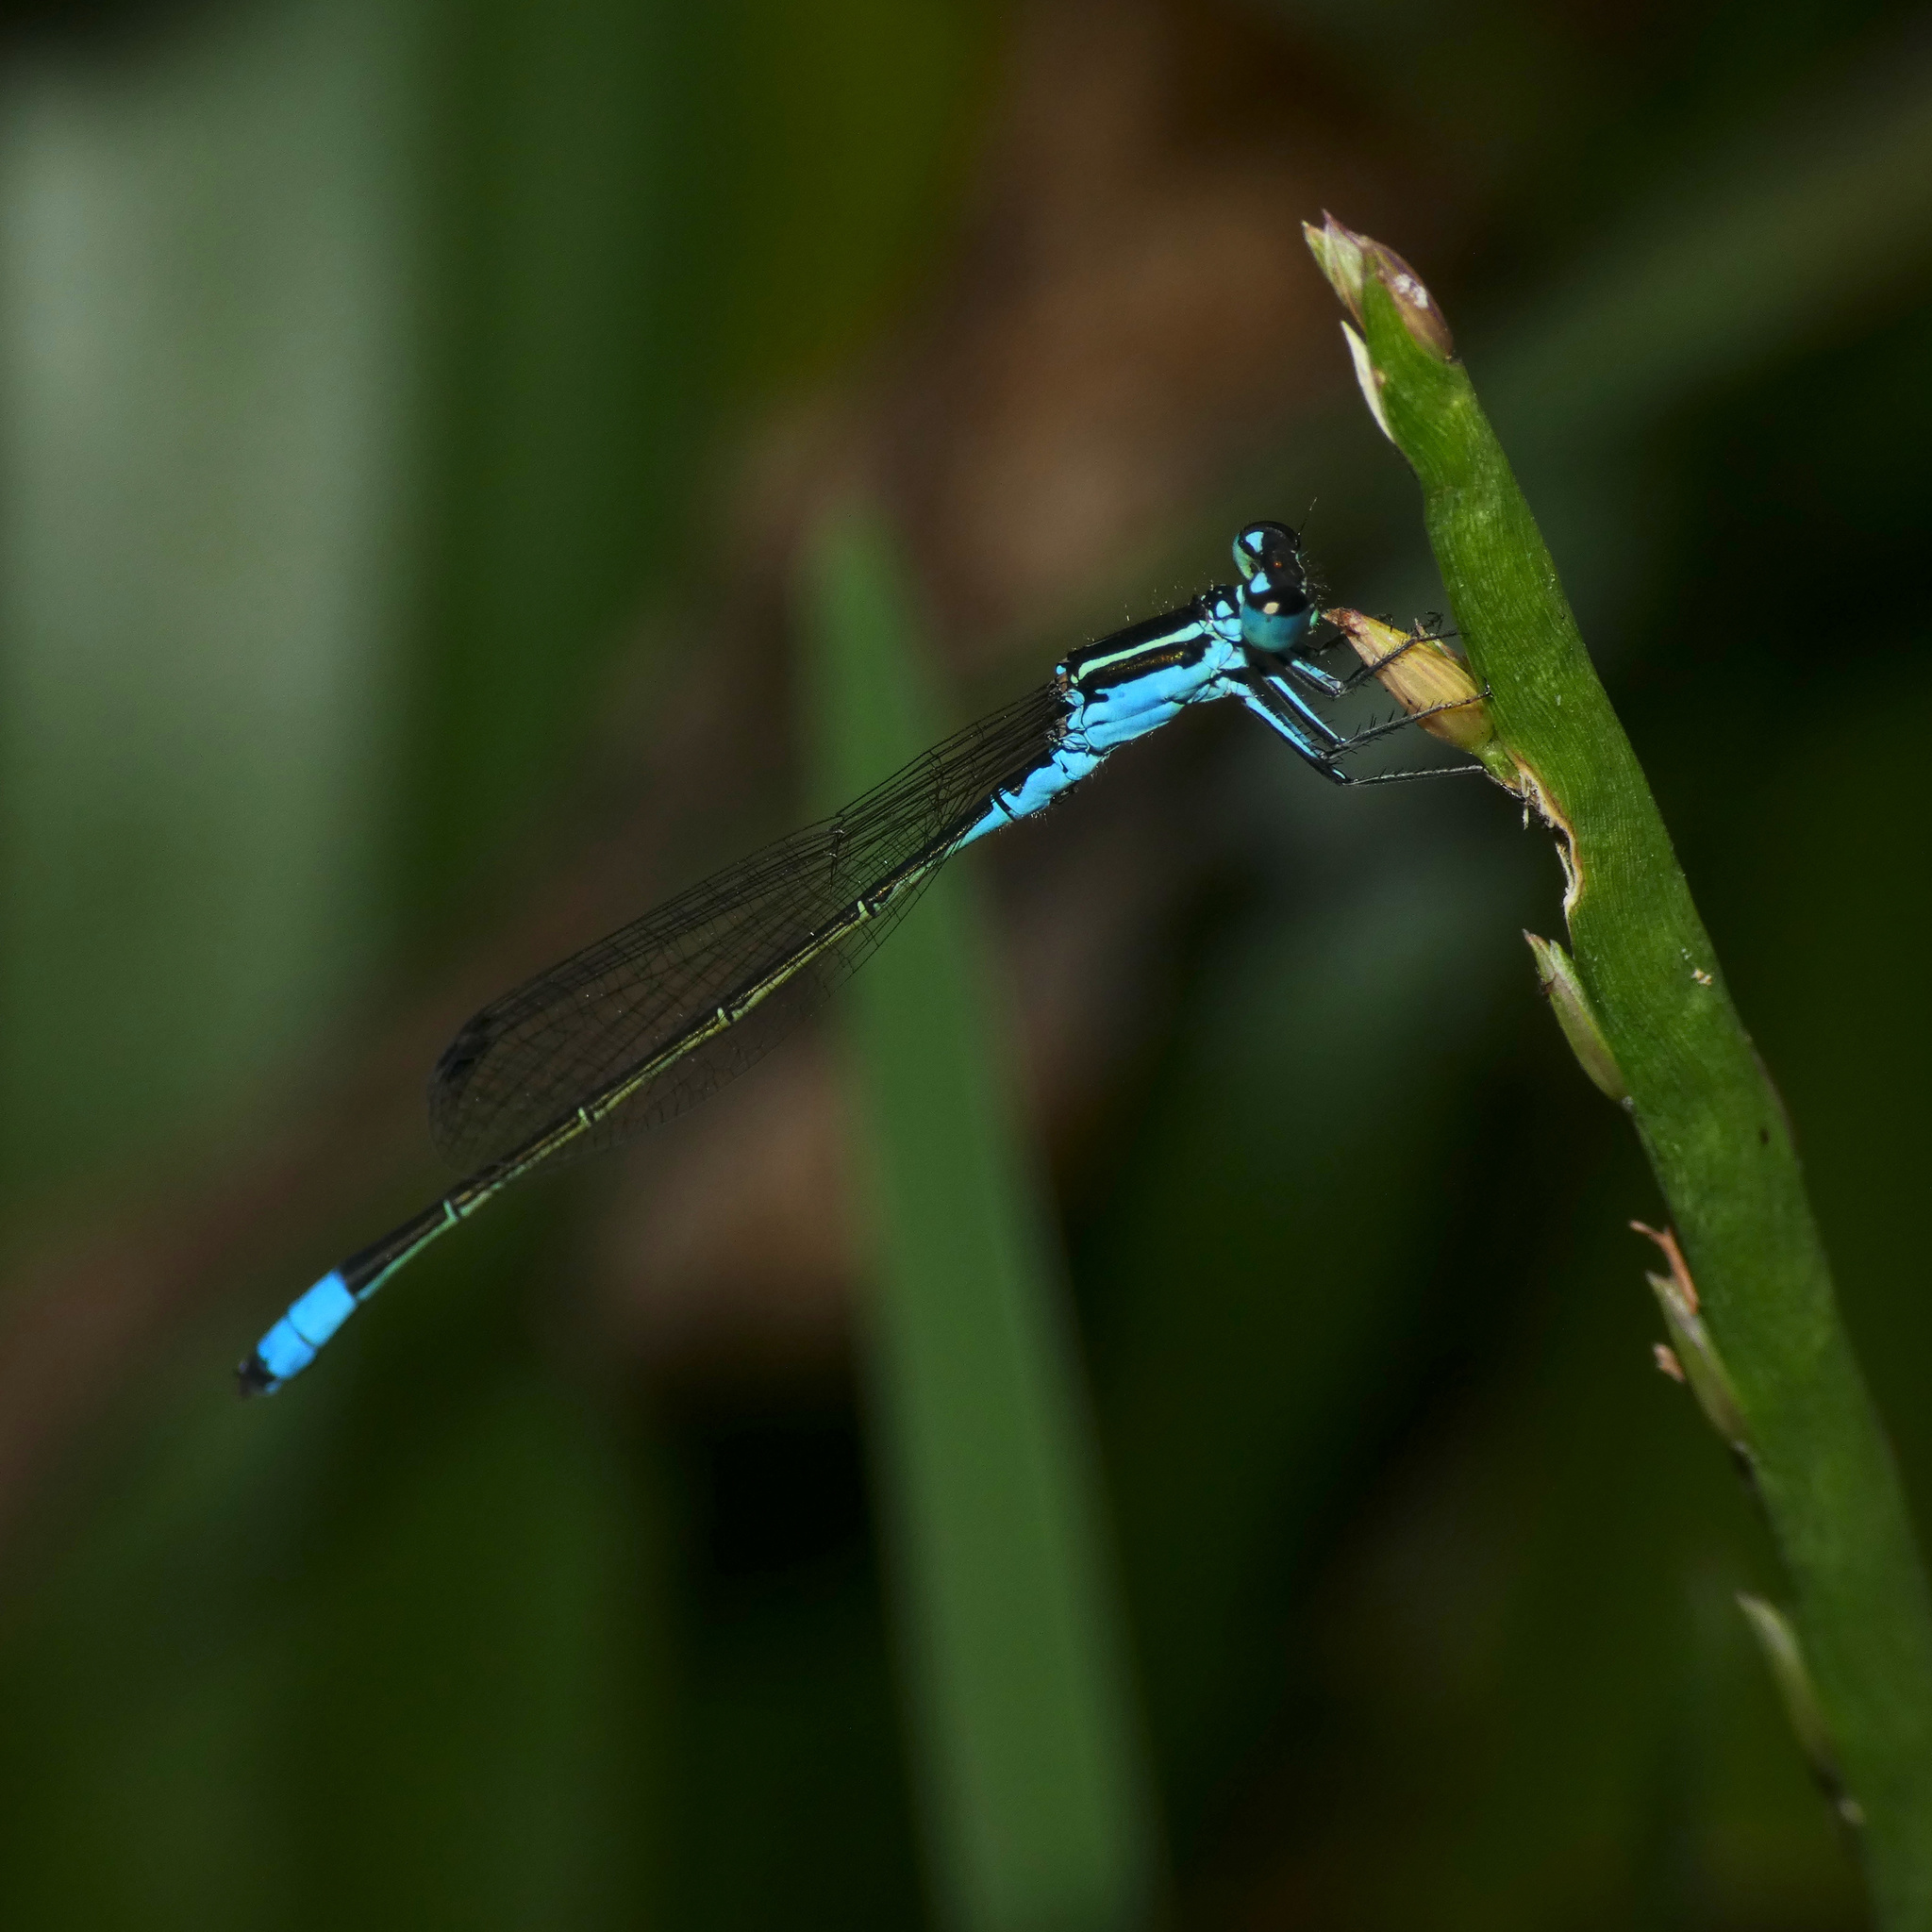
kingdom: Animalia
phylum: Arthropoda
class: Insecta
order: Odonata
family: Coenagrionidae
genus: Proischnura
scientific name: Proischnura subfurcata
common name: Fork-tailed bluet
